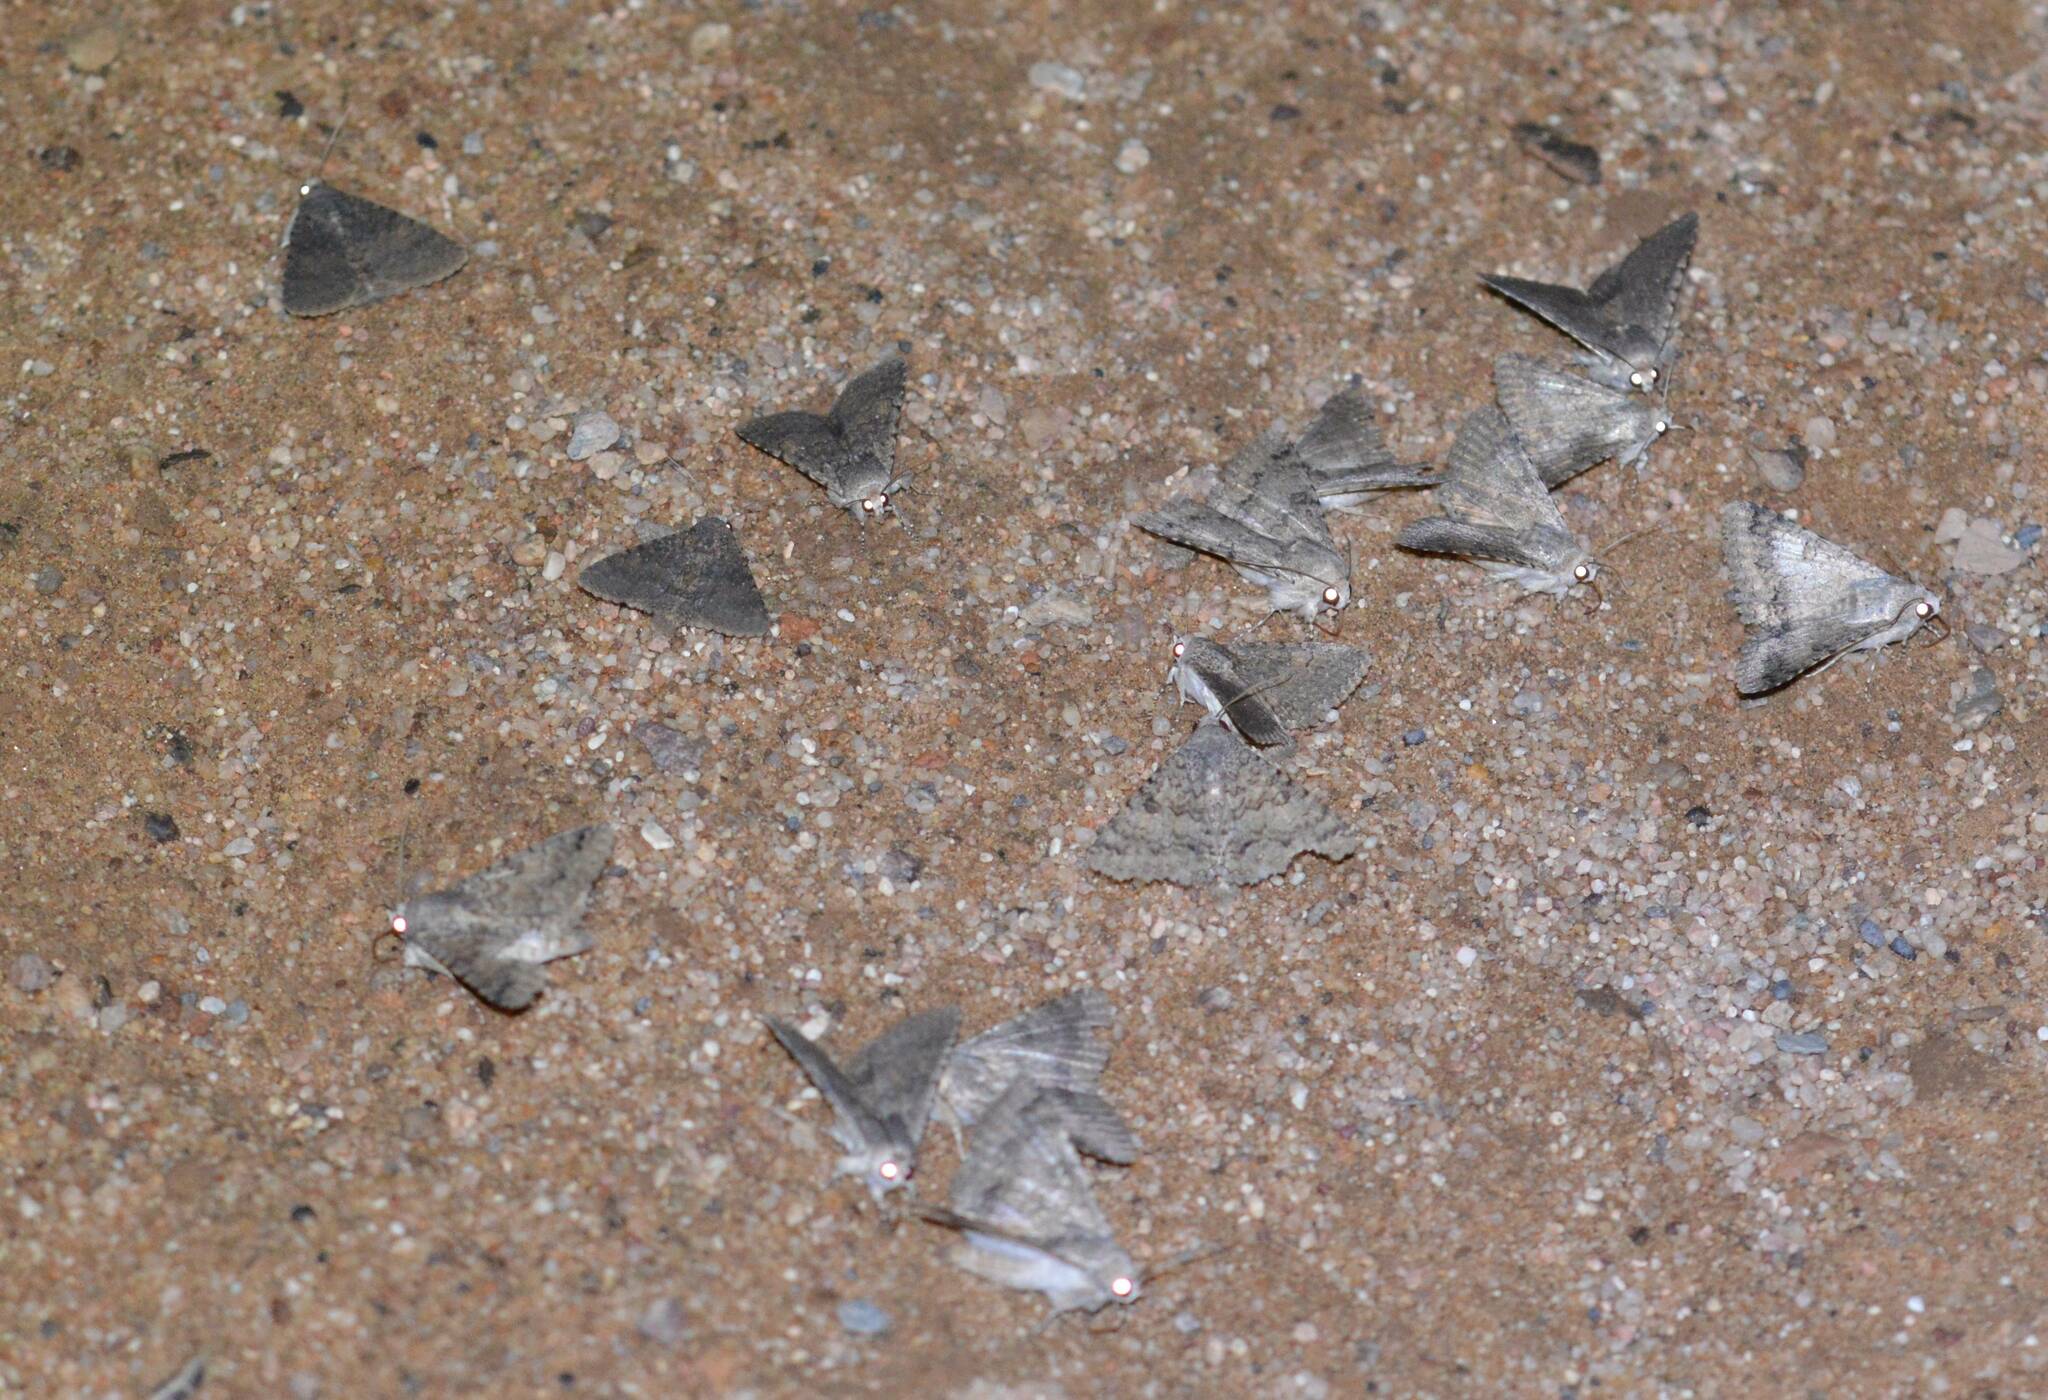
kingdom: Animalia
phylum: Arthropoda
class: Insecta
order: Lepidoptera
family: Erebidae
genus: Pandesma
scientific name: Pandesma robusta
